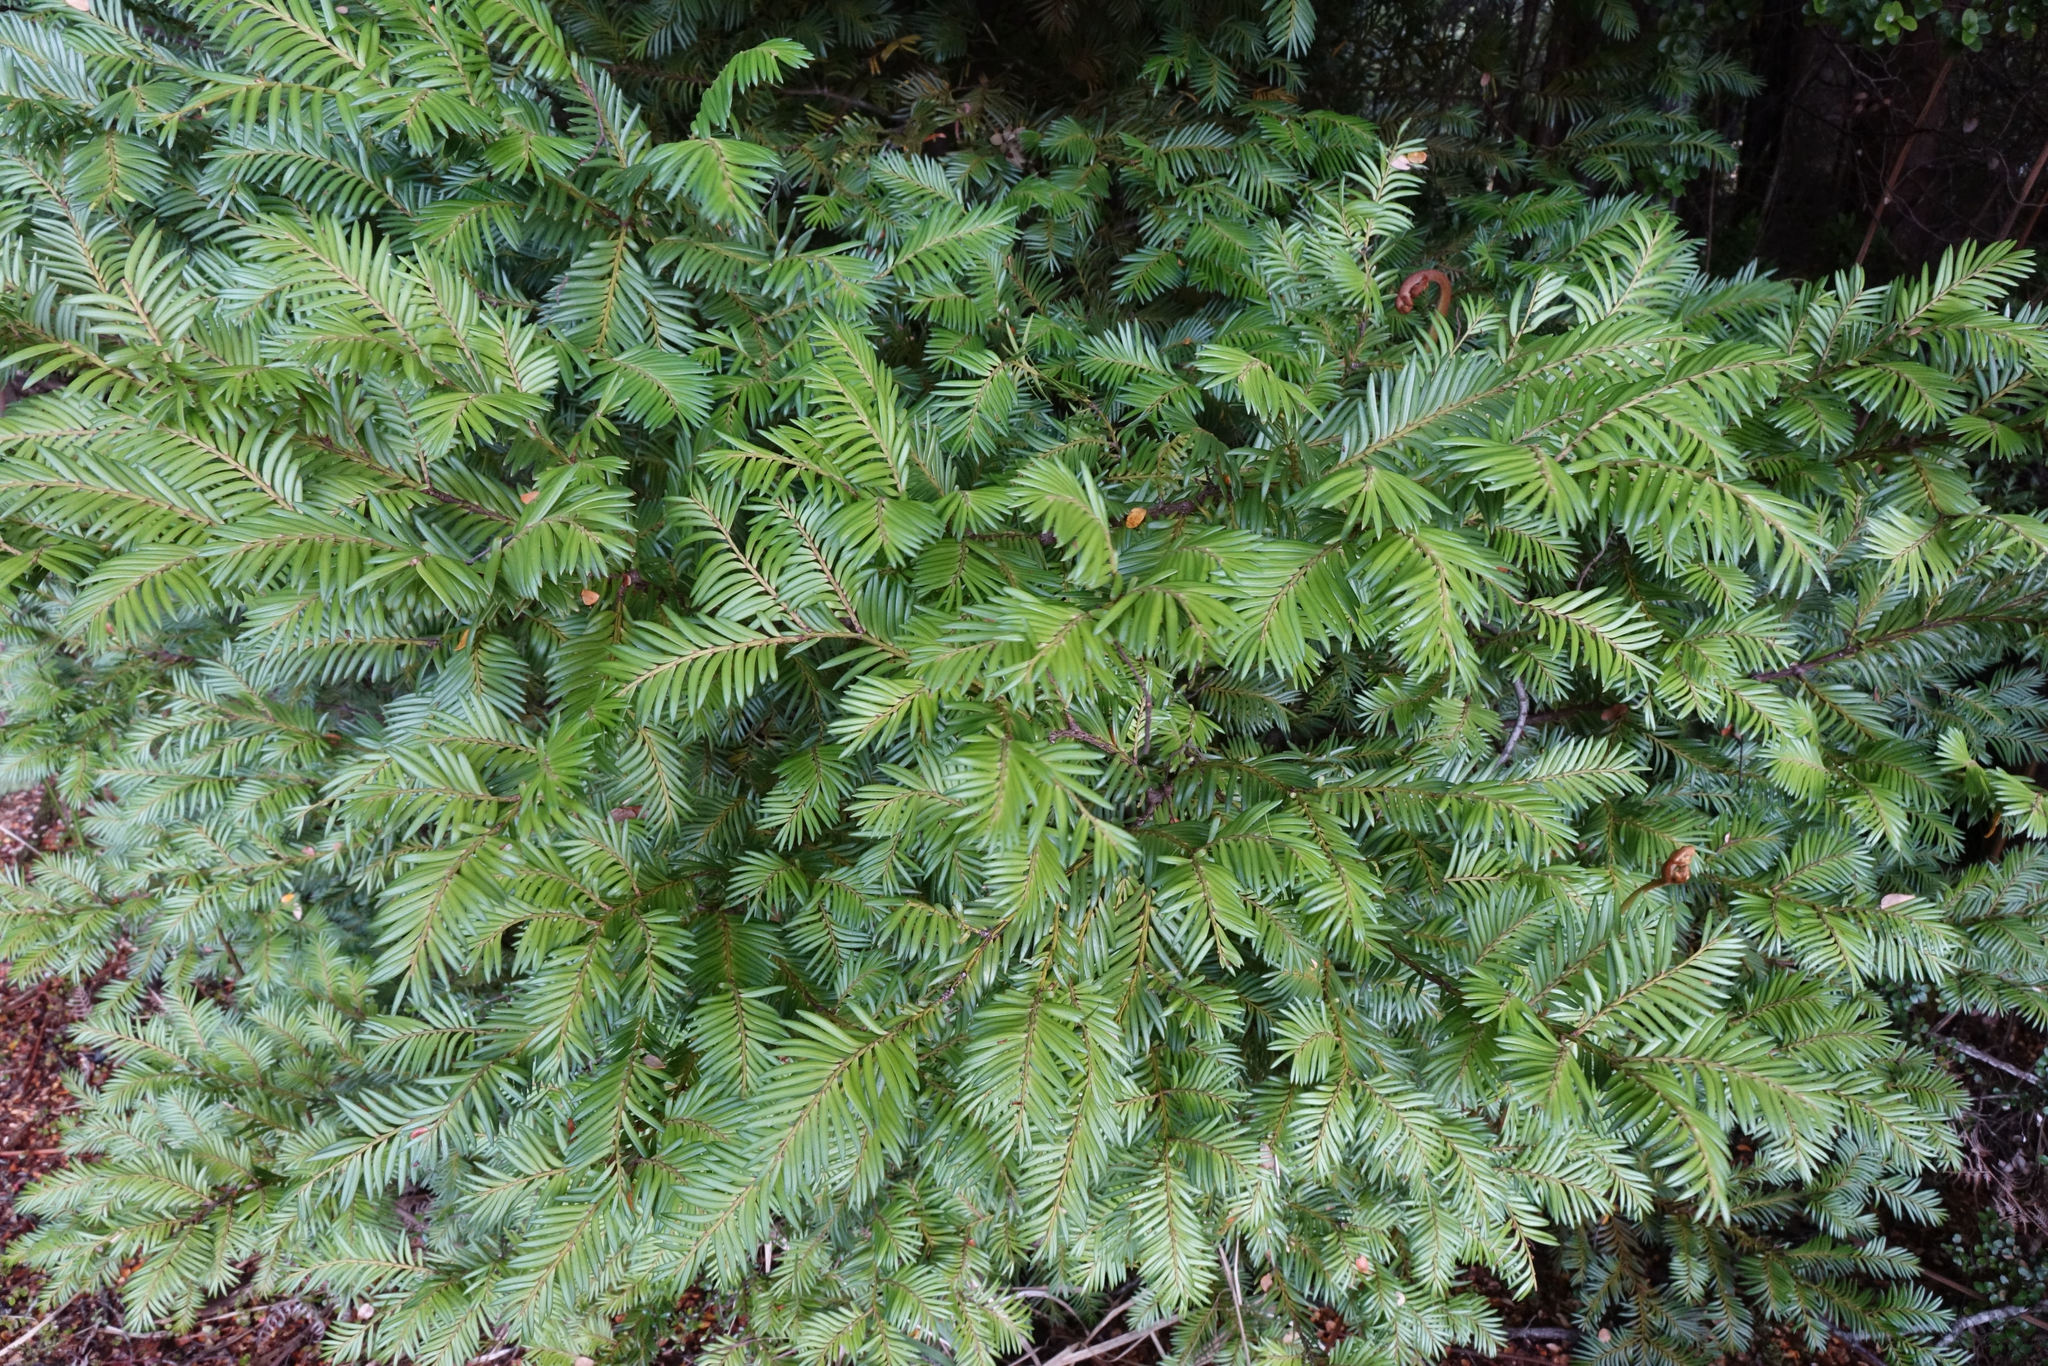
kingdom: Plantae
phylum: Tracheophyta
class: Pinopsida
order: Pinales
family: Podocarpaceae
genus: Prumnopitys
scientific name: Prumnopitys ferruginea
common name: Brown pine
